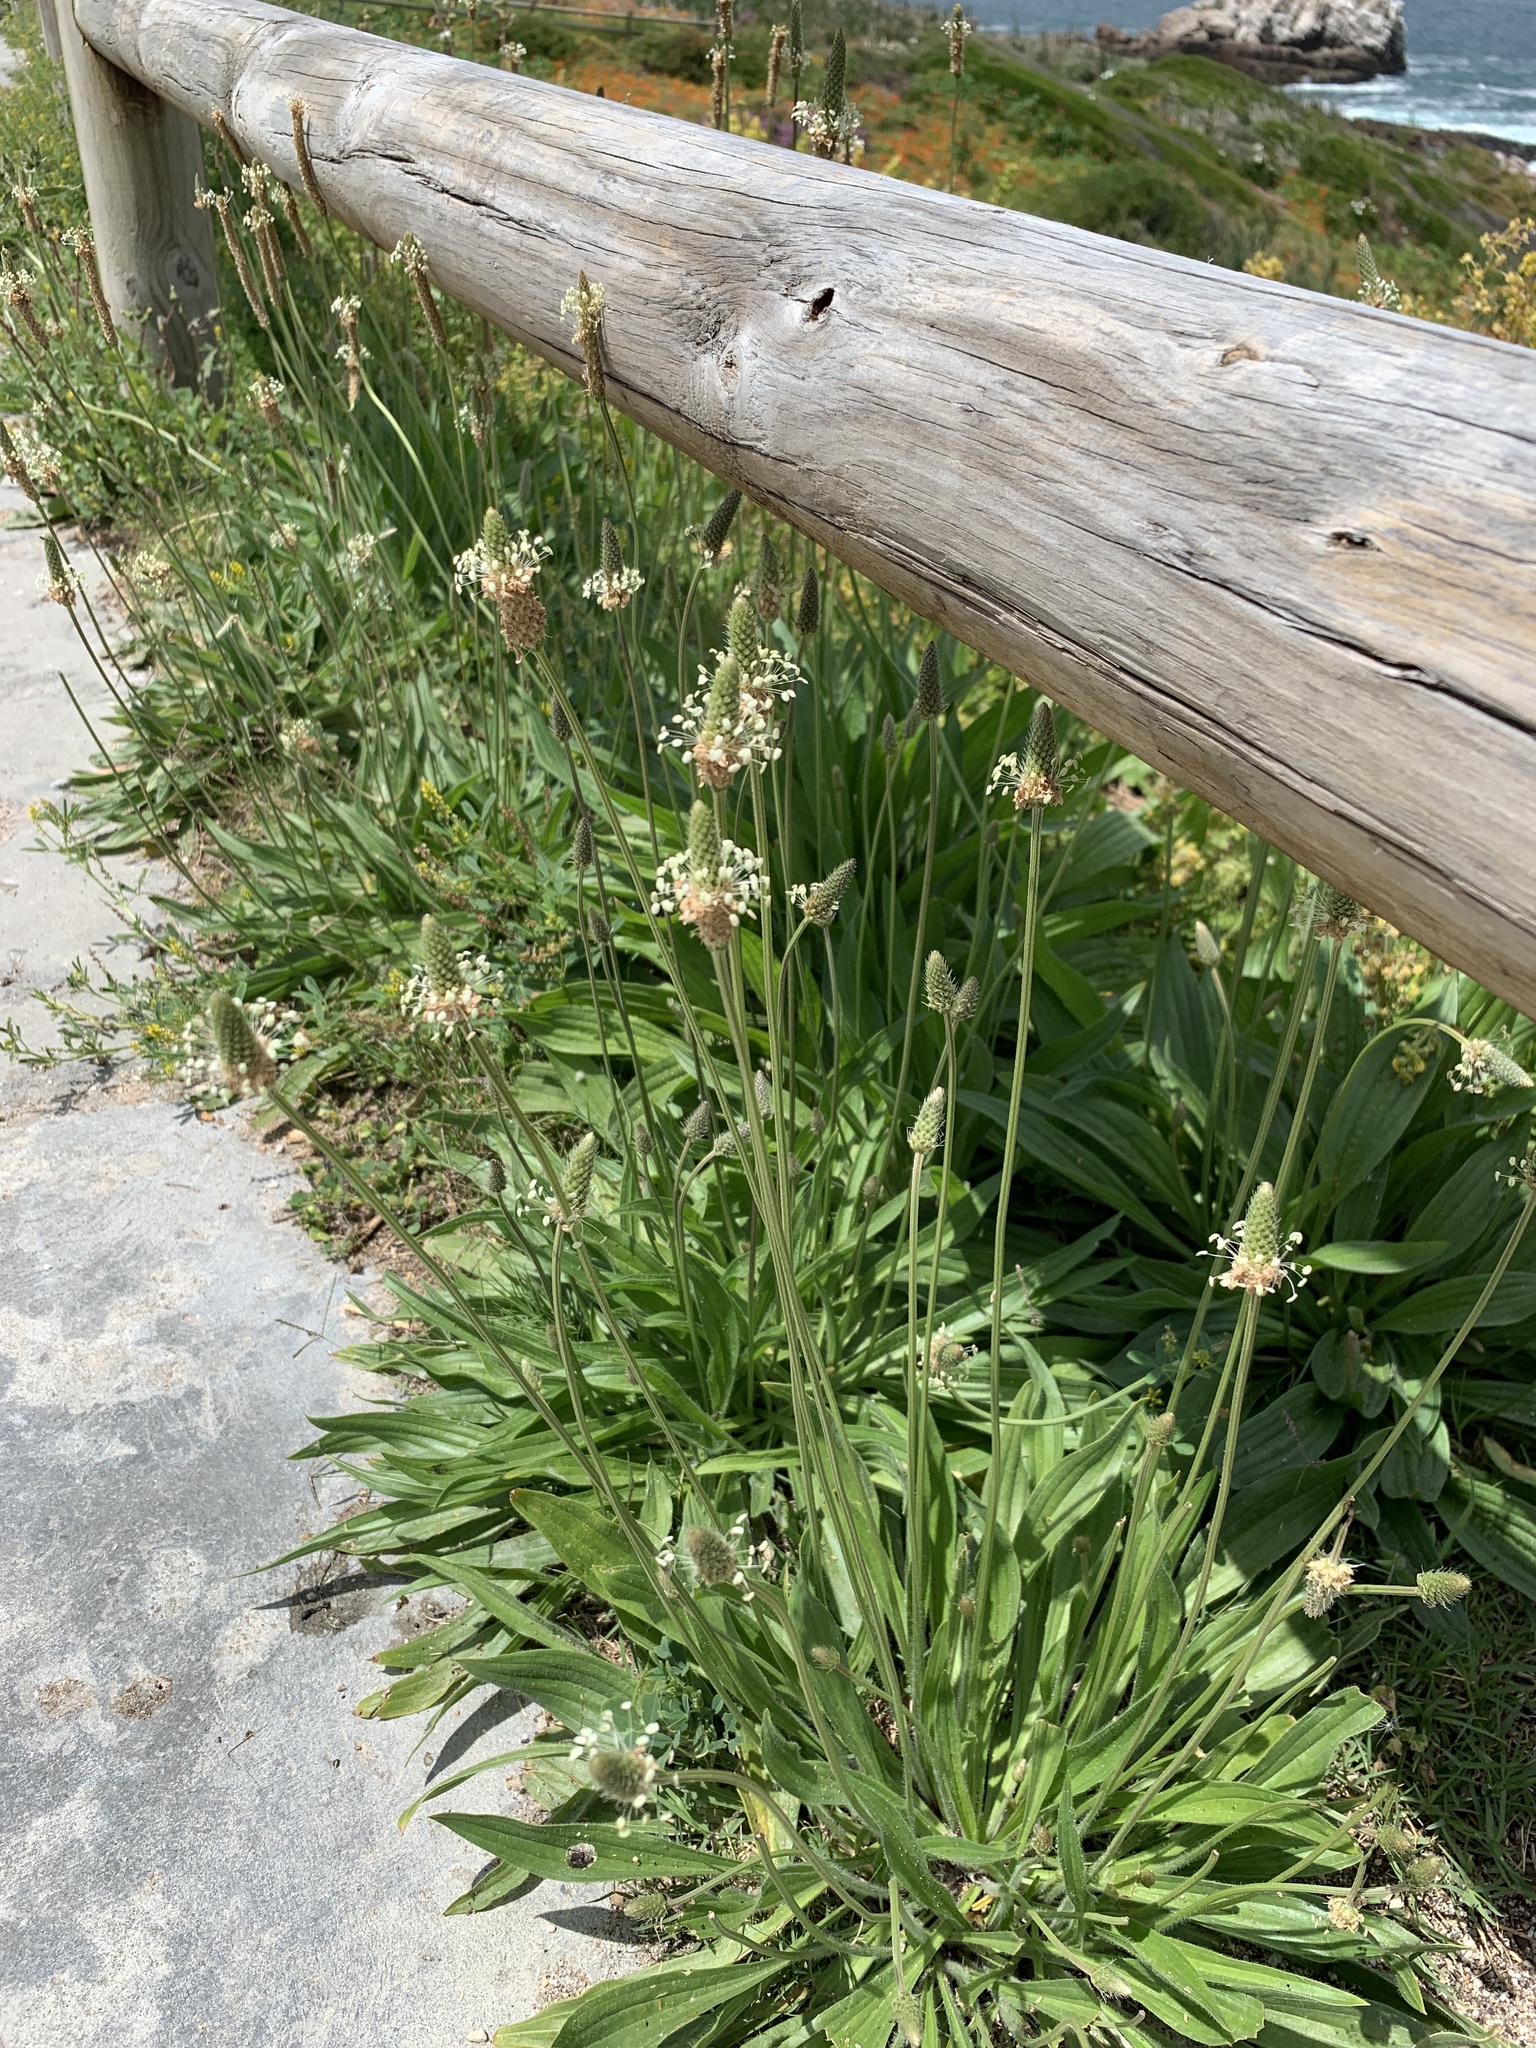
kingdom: Plantae
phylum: Tracheophyta
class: Magnoliopsida
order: Lamiales
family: Plantaginaceae
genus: Plantago
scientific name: Plantago lanceolata
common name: Ribwort plantain
